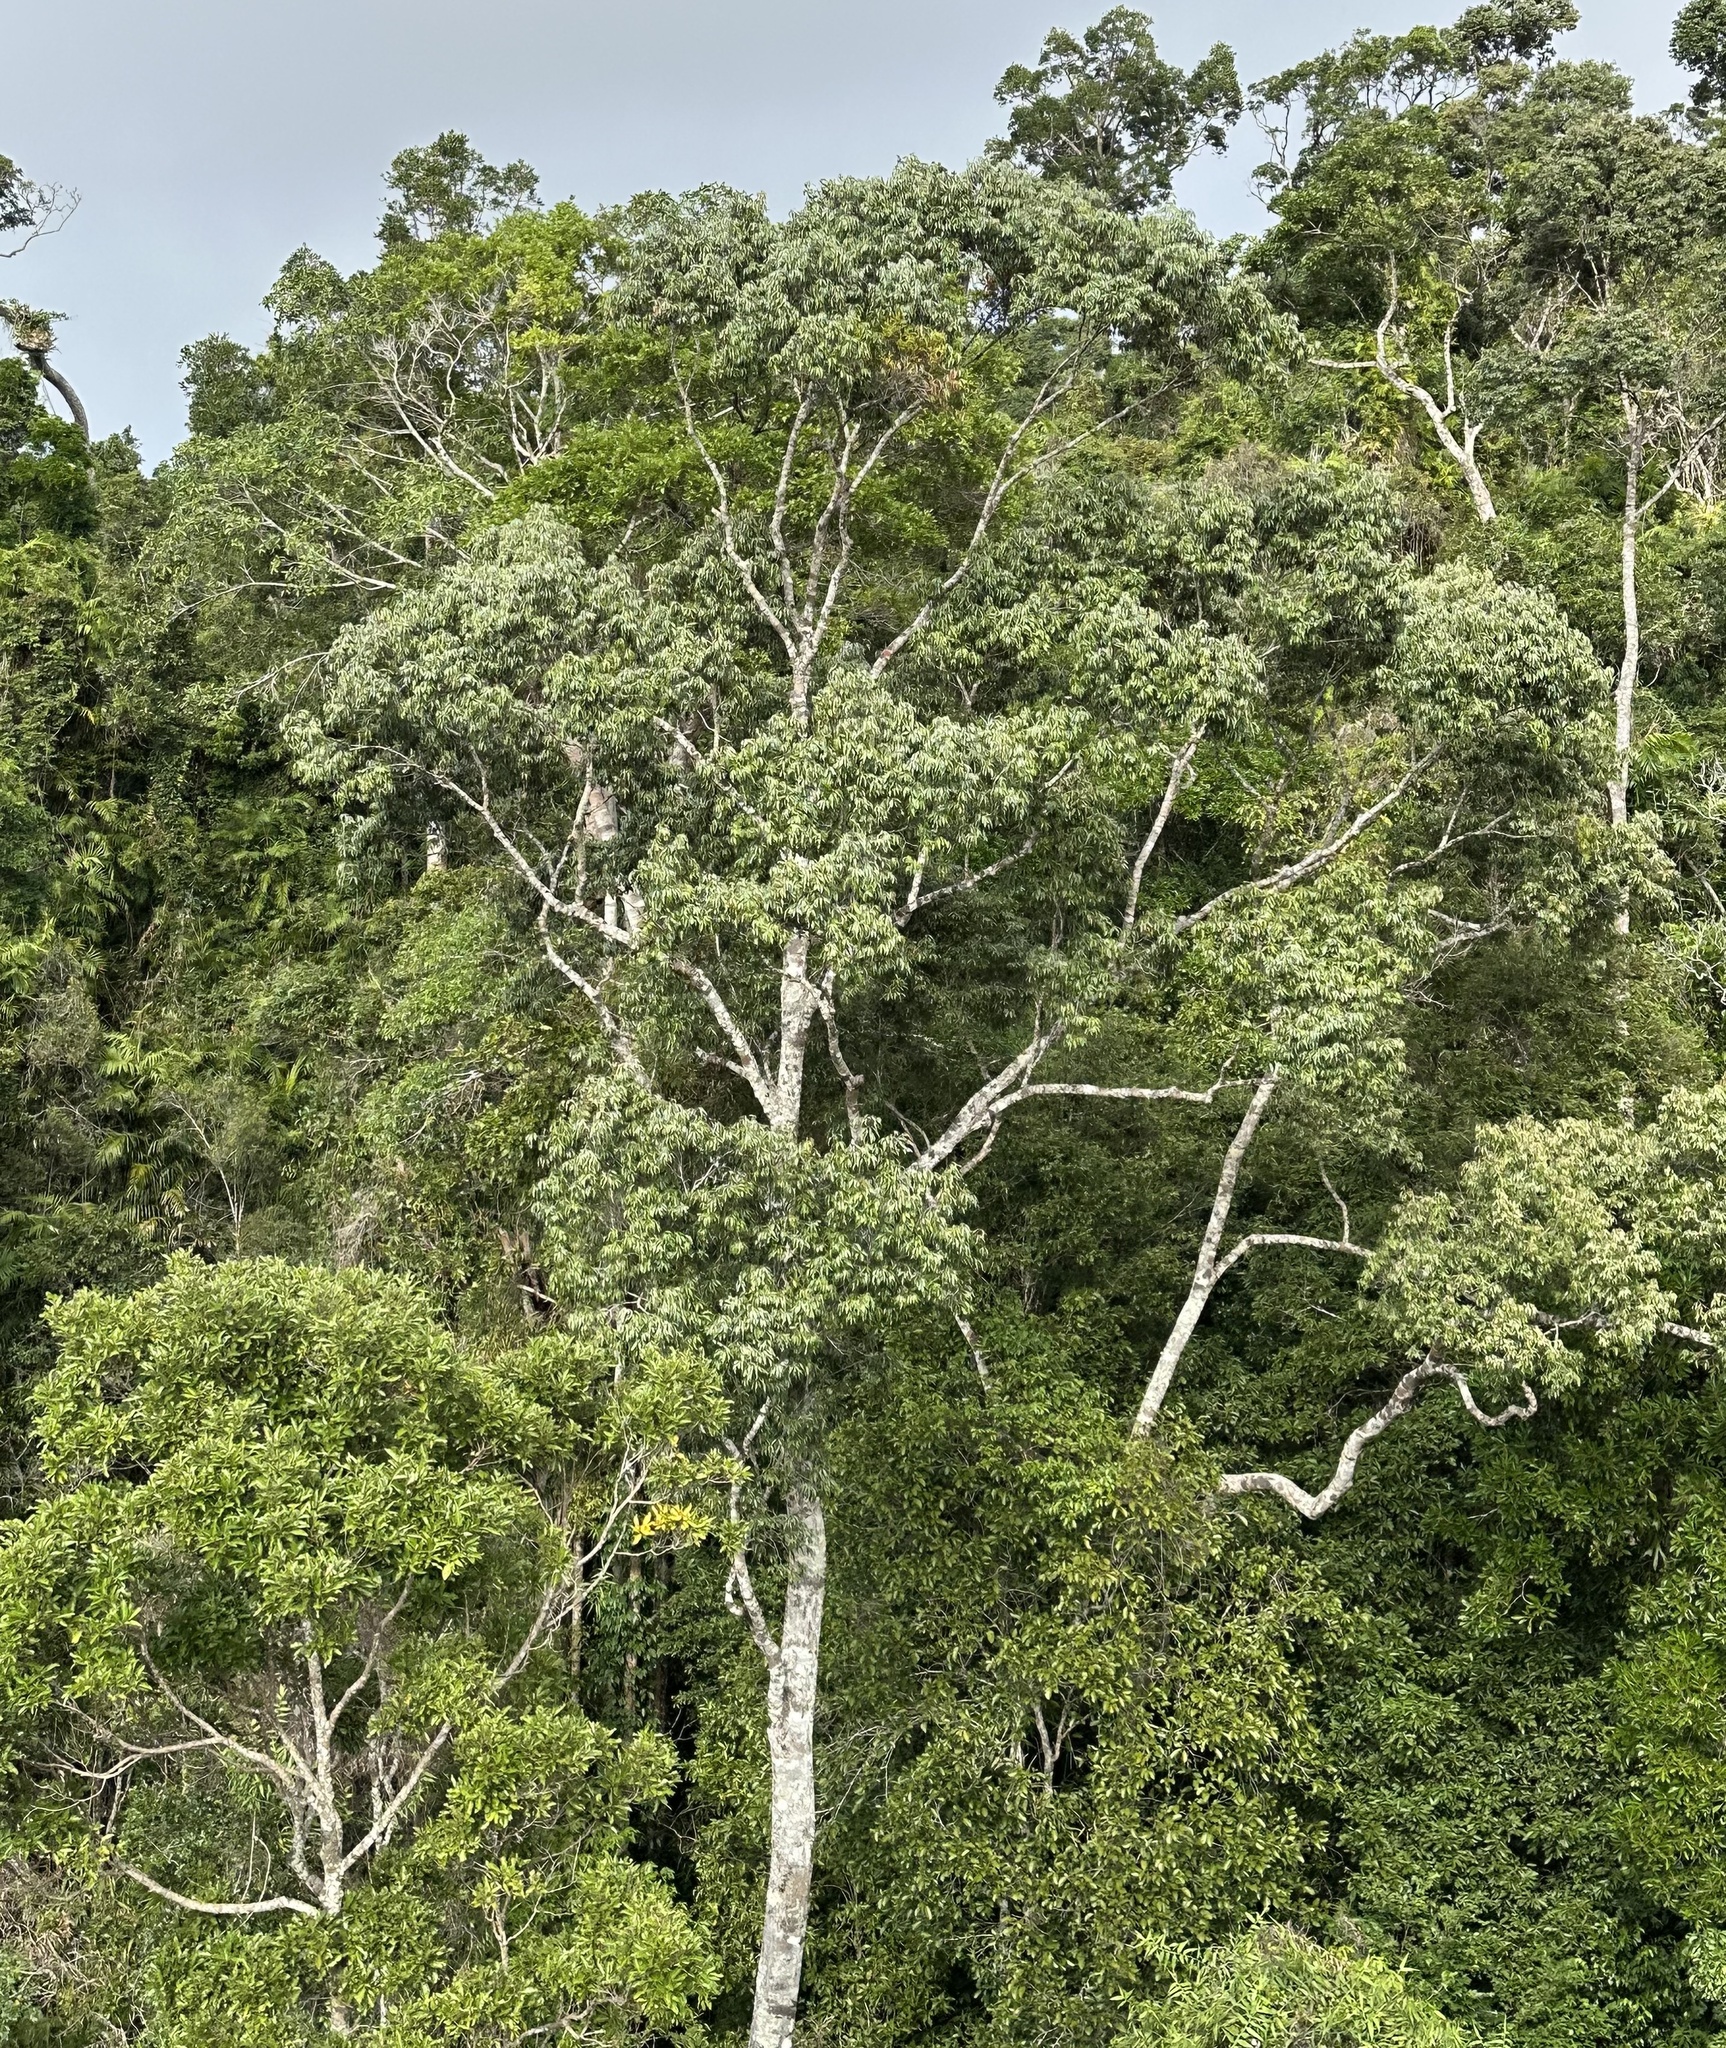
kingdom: Plantae
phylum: Tracheophyta
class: Magnoliopsida
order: Malvales
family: Malvaceae
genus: Argyrodendron
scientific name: Argyrodendron trifoliolatum
